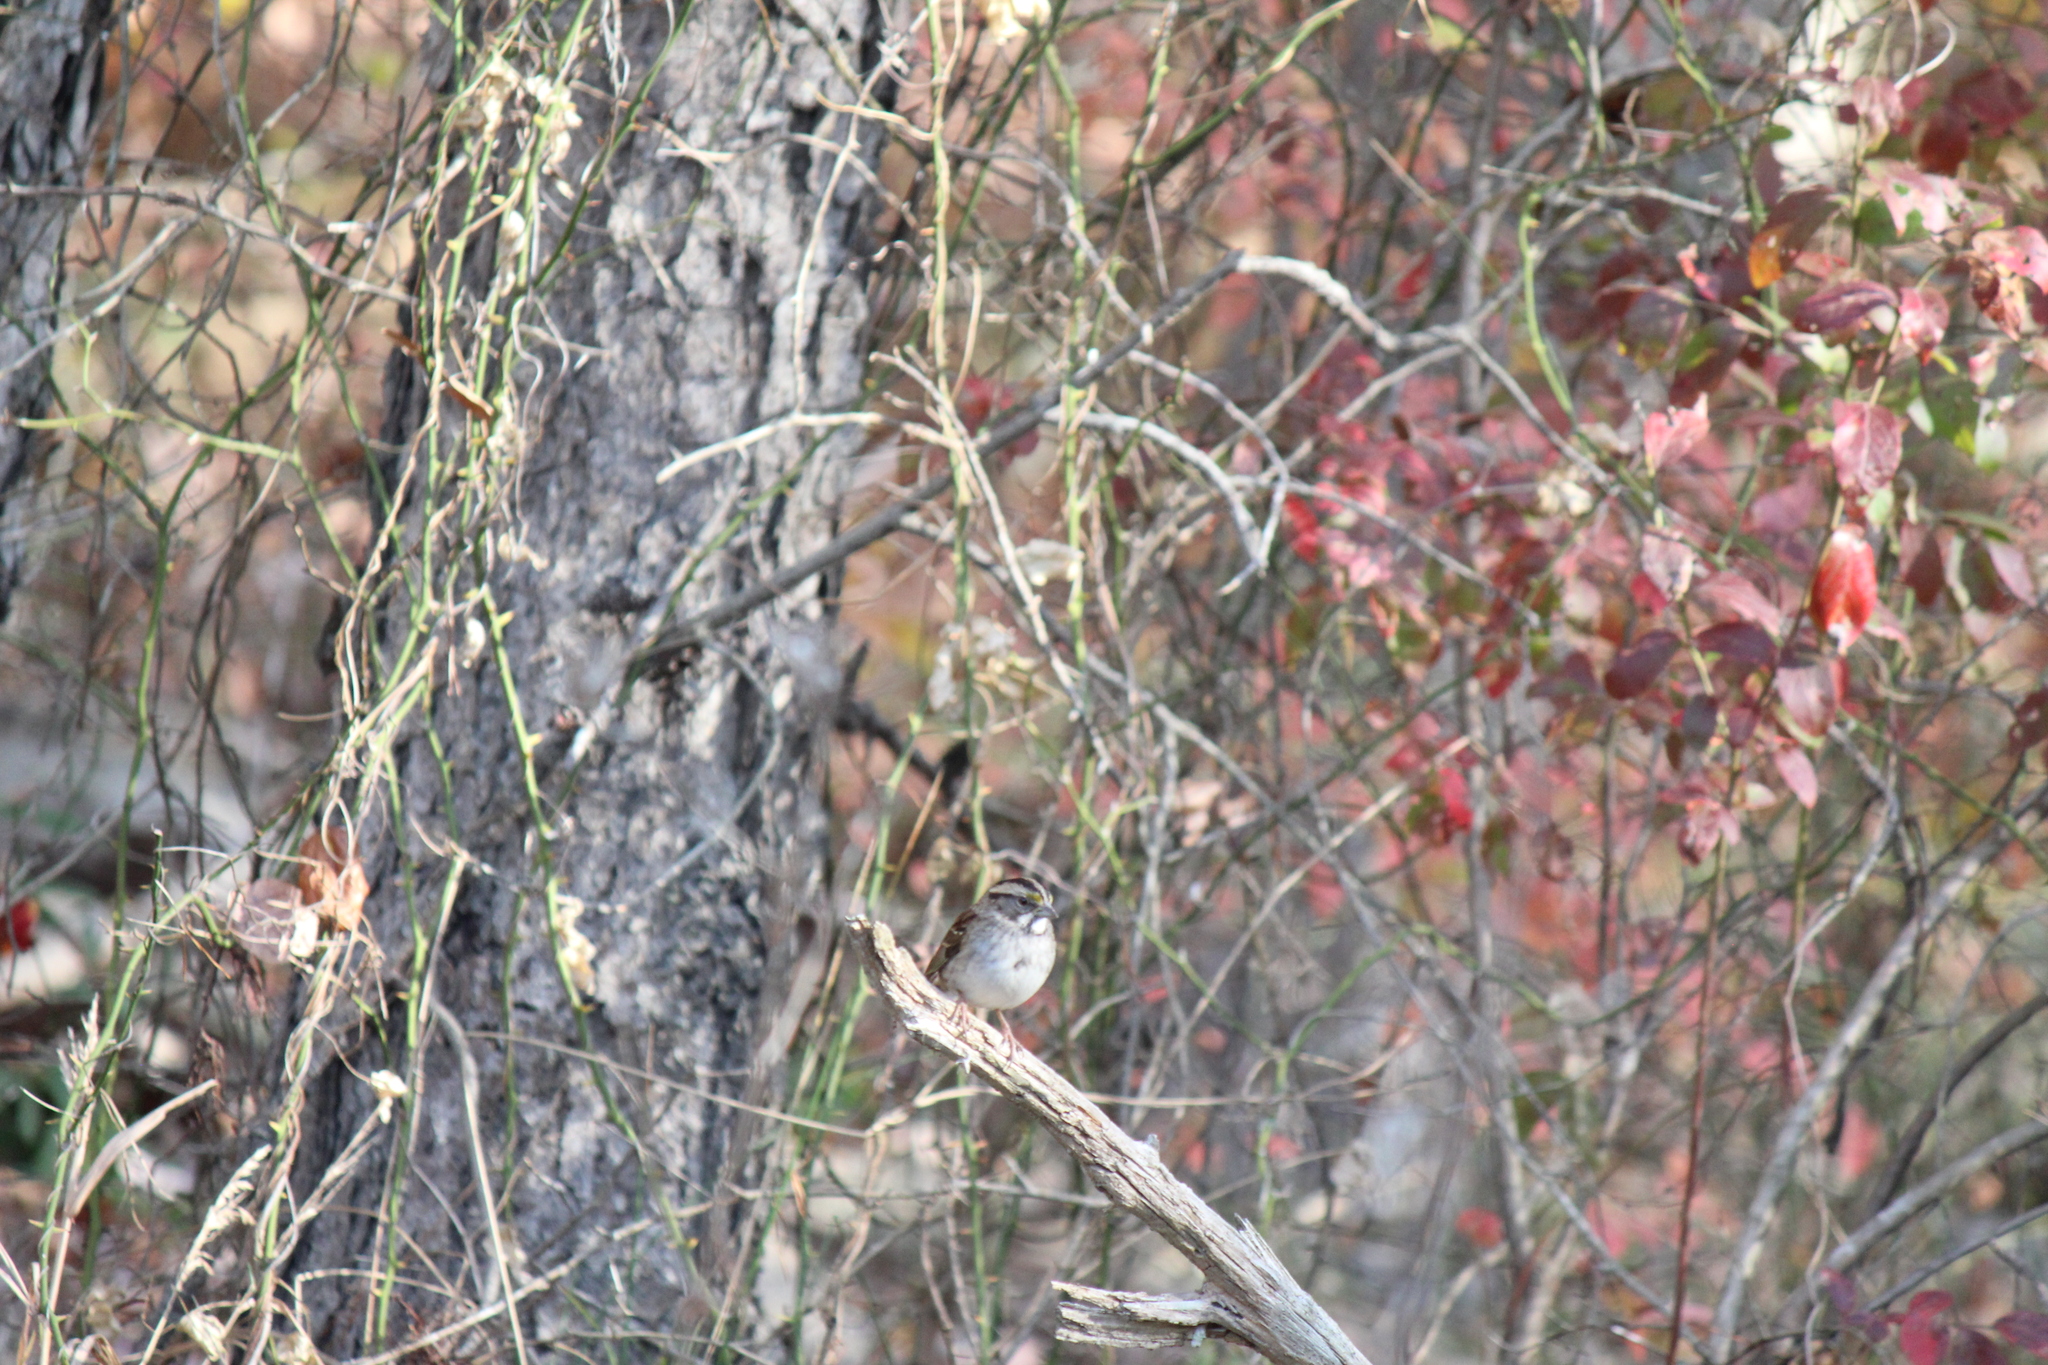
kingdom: Animalia
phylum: Chordata
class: Aves
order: Passeriformes
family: Passerellidae
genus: Zonotrichia
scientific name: Zonotrichia albicollis
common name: White-throated sparrow
